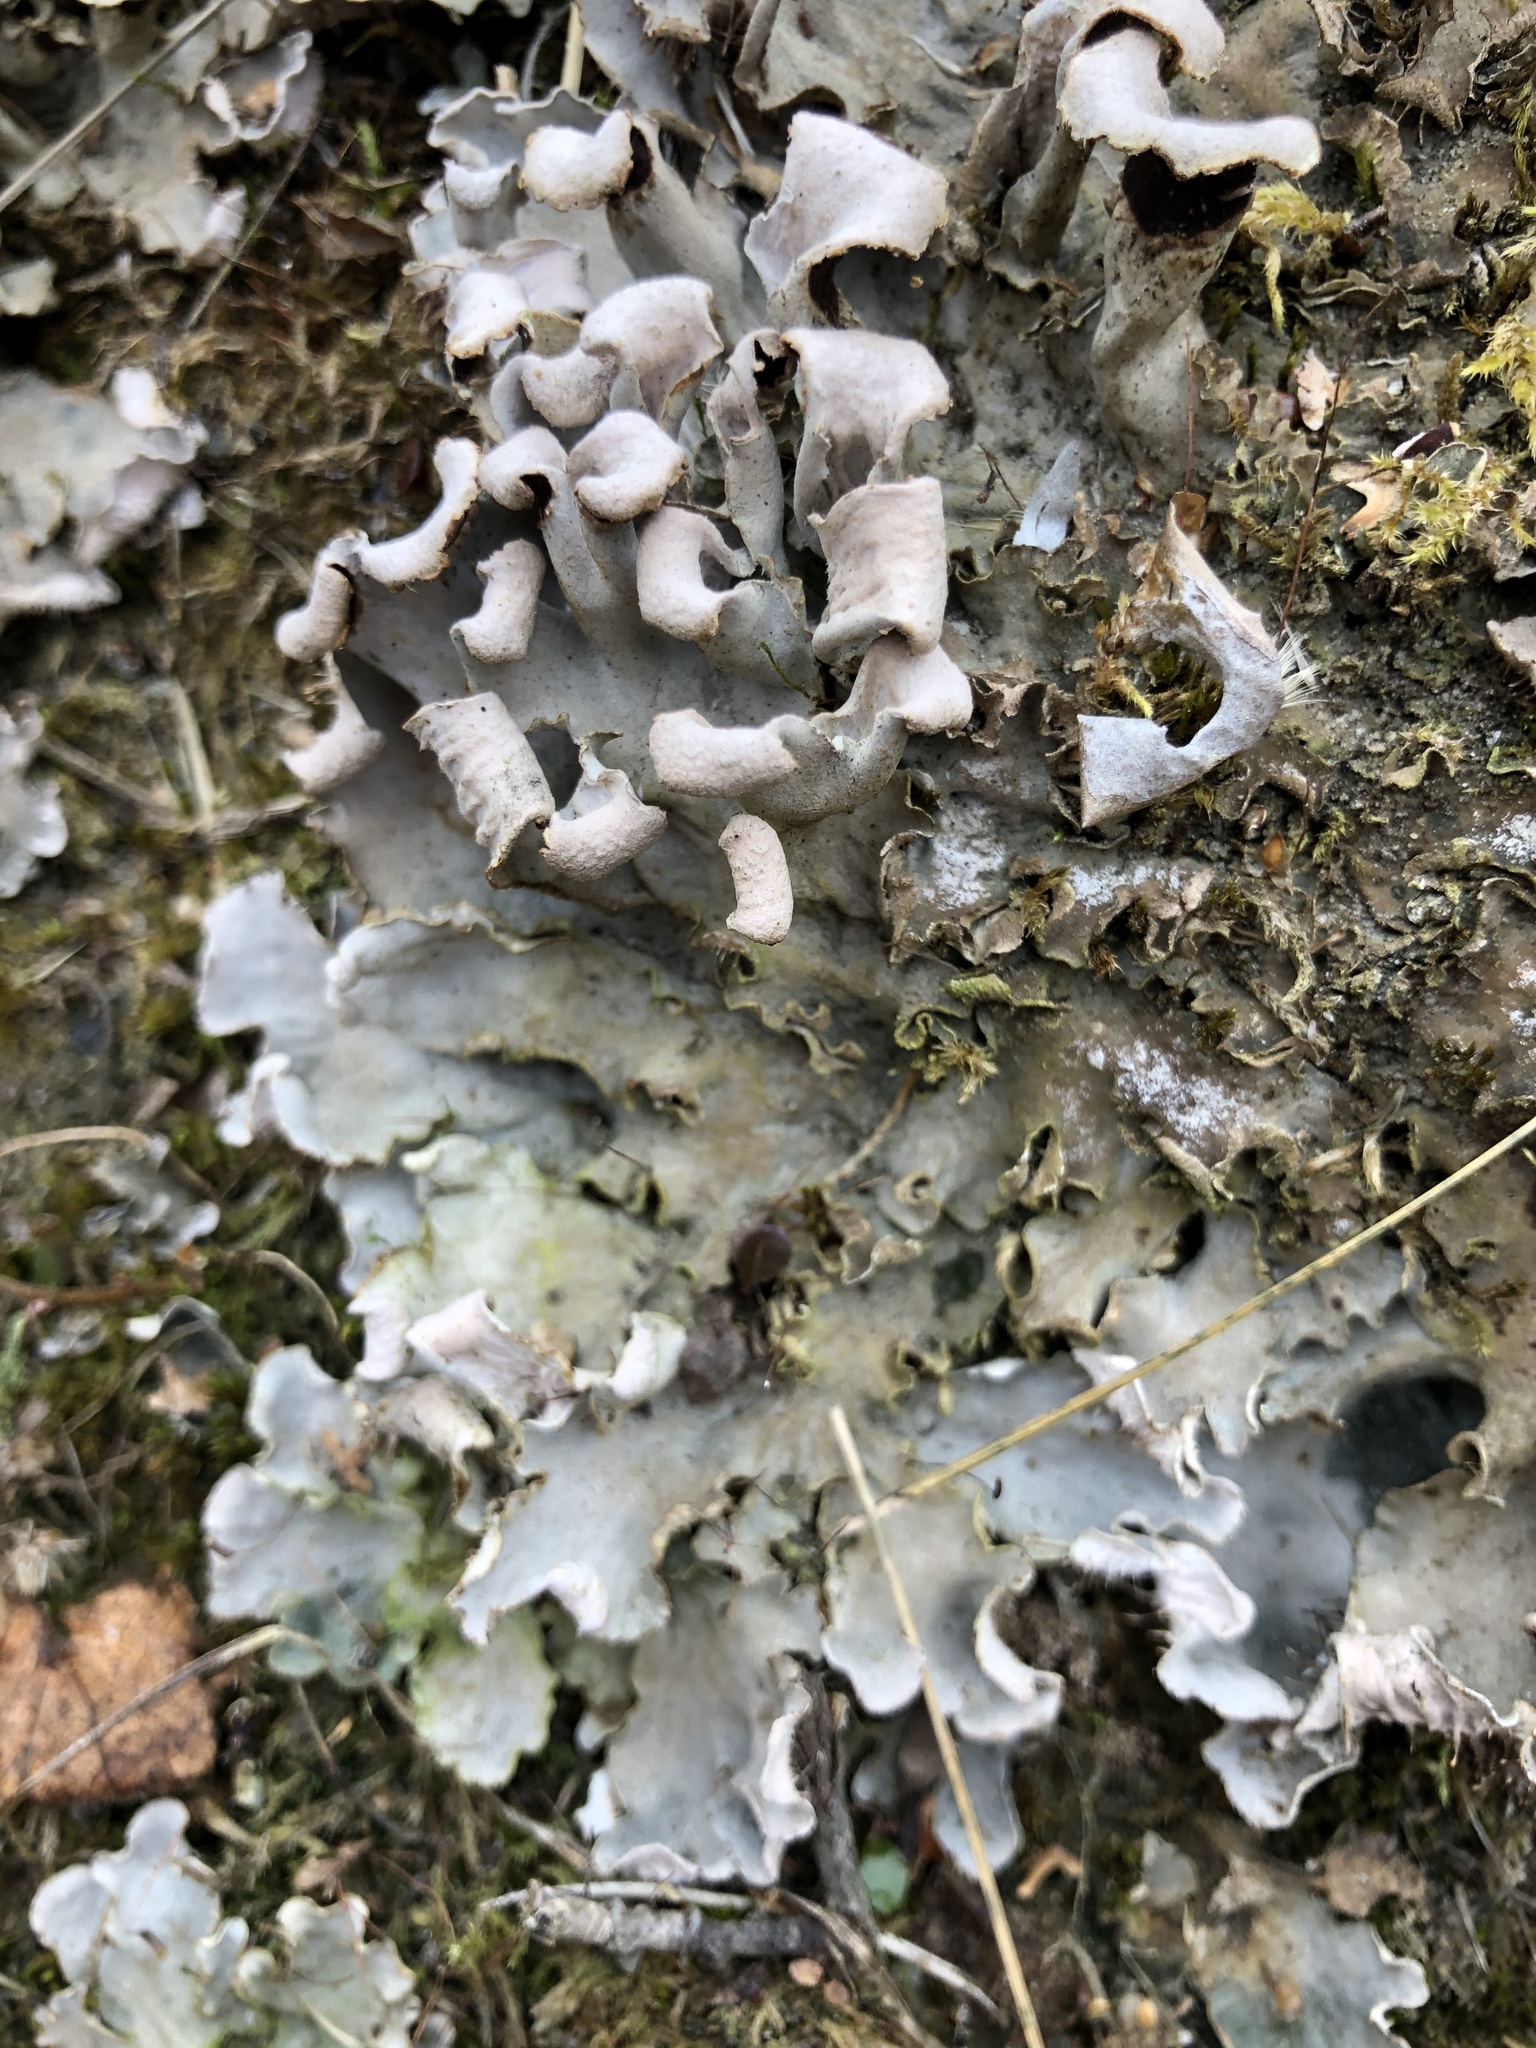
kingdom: Fungi
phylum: Ascomycota
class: Lecanoromycetes
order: Peltigerales
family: Peltigeraceae
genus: Peltigera
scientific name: Peltigera canina
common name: Dog pelt lichen
